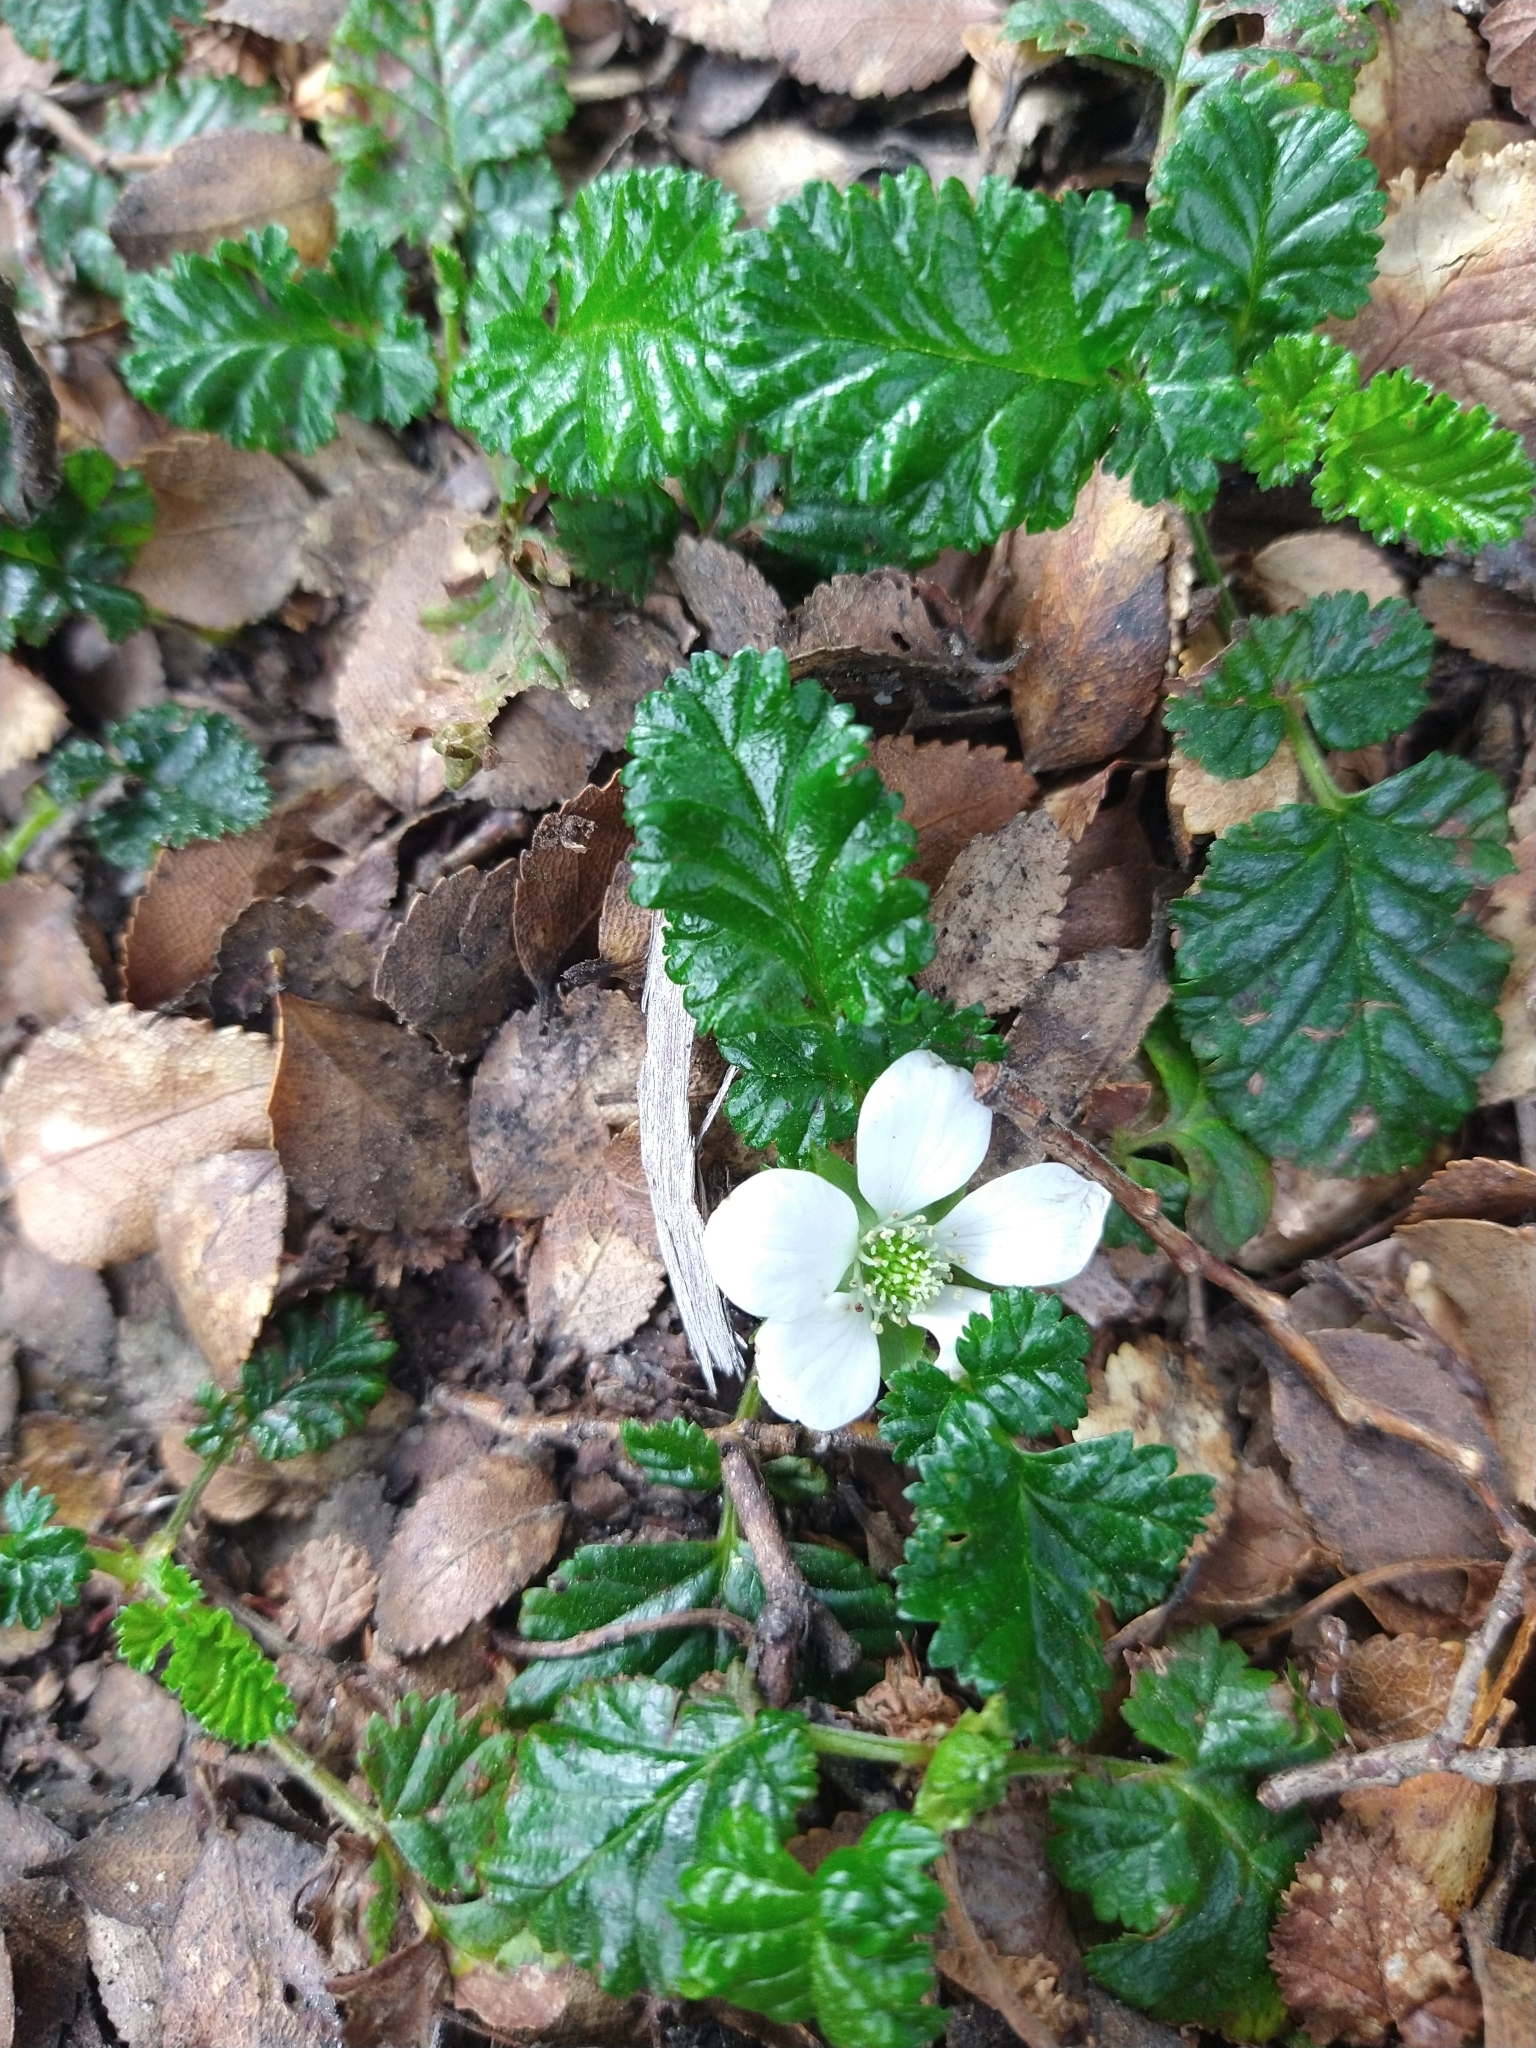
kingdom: Plantae
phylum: Tracheophyta
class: Magnoliopsida
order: Rosales
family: Rosaceae
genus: Rubus
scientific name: Rubus geoides
